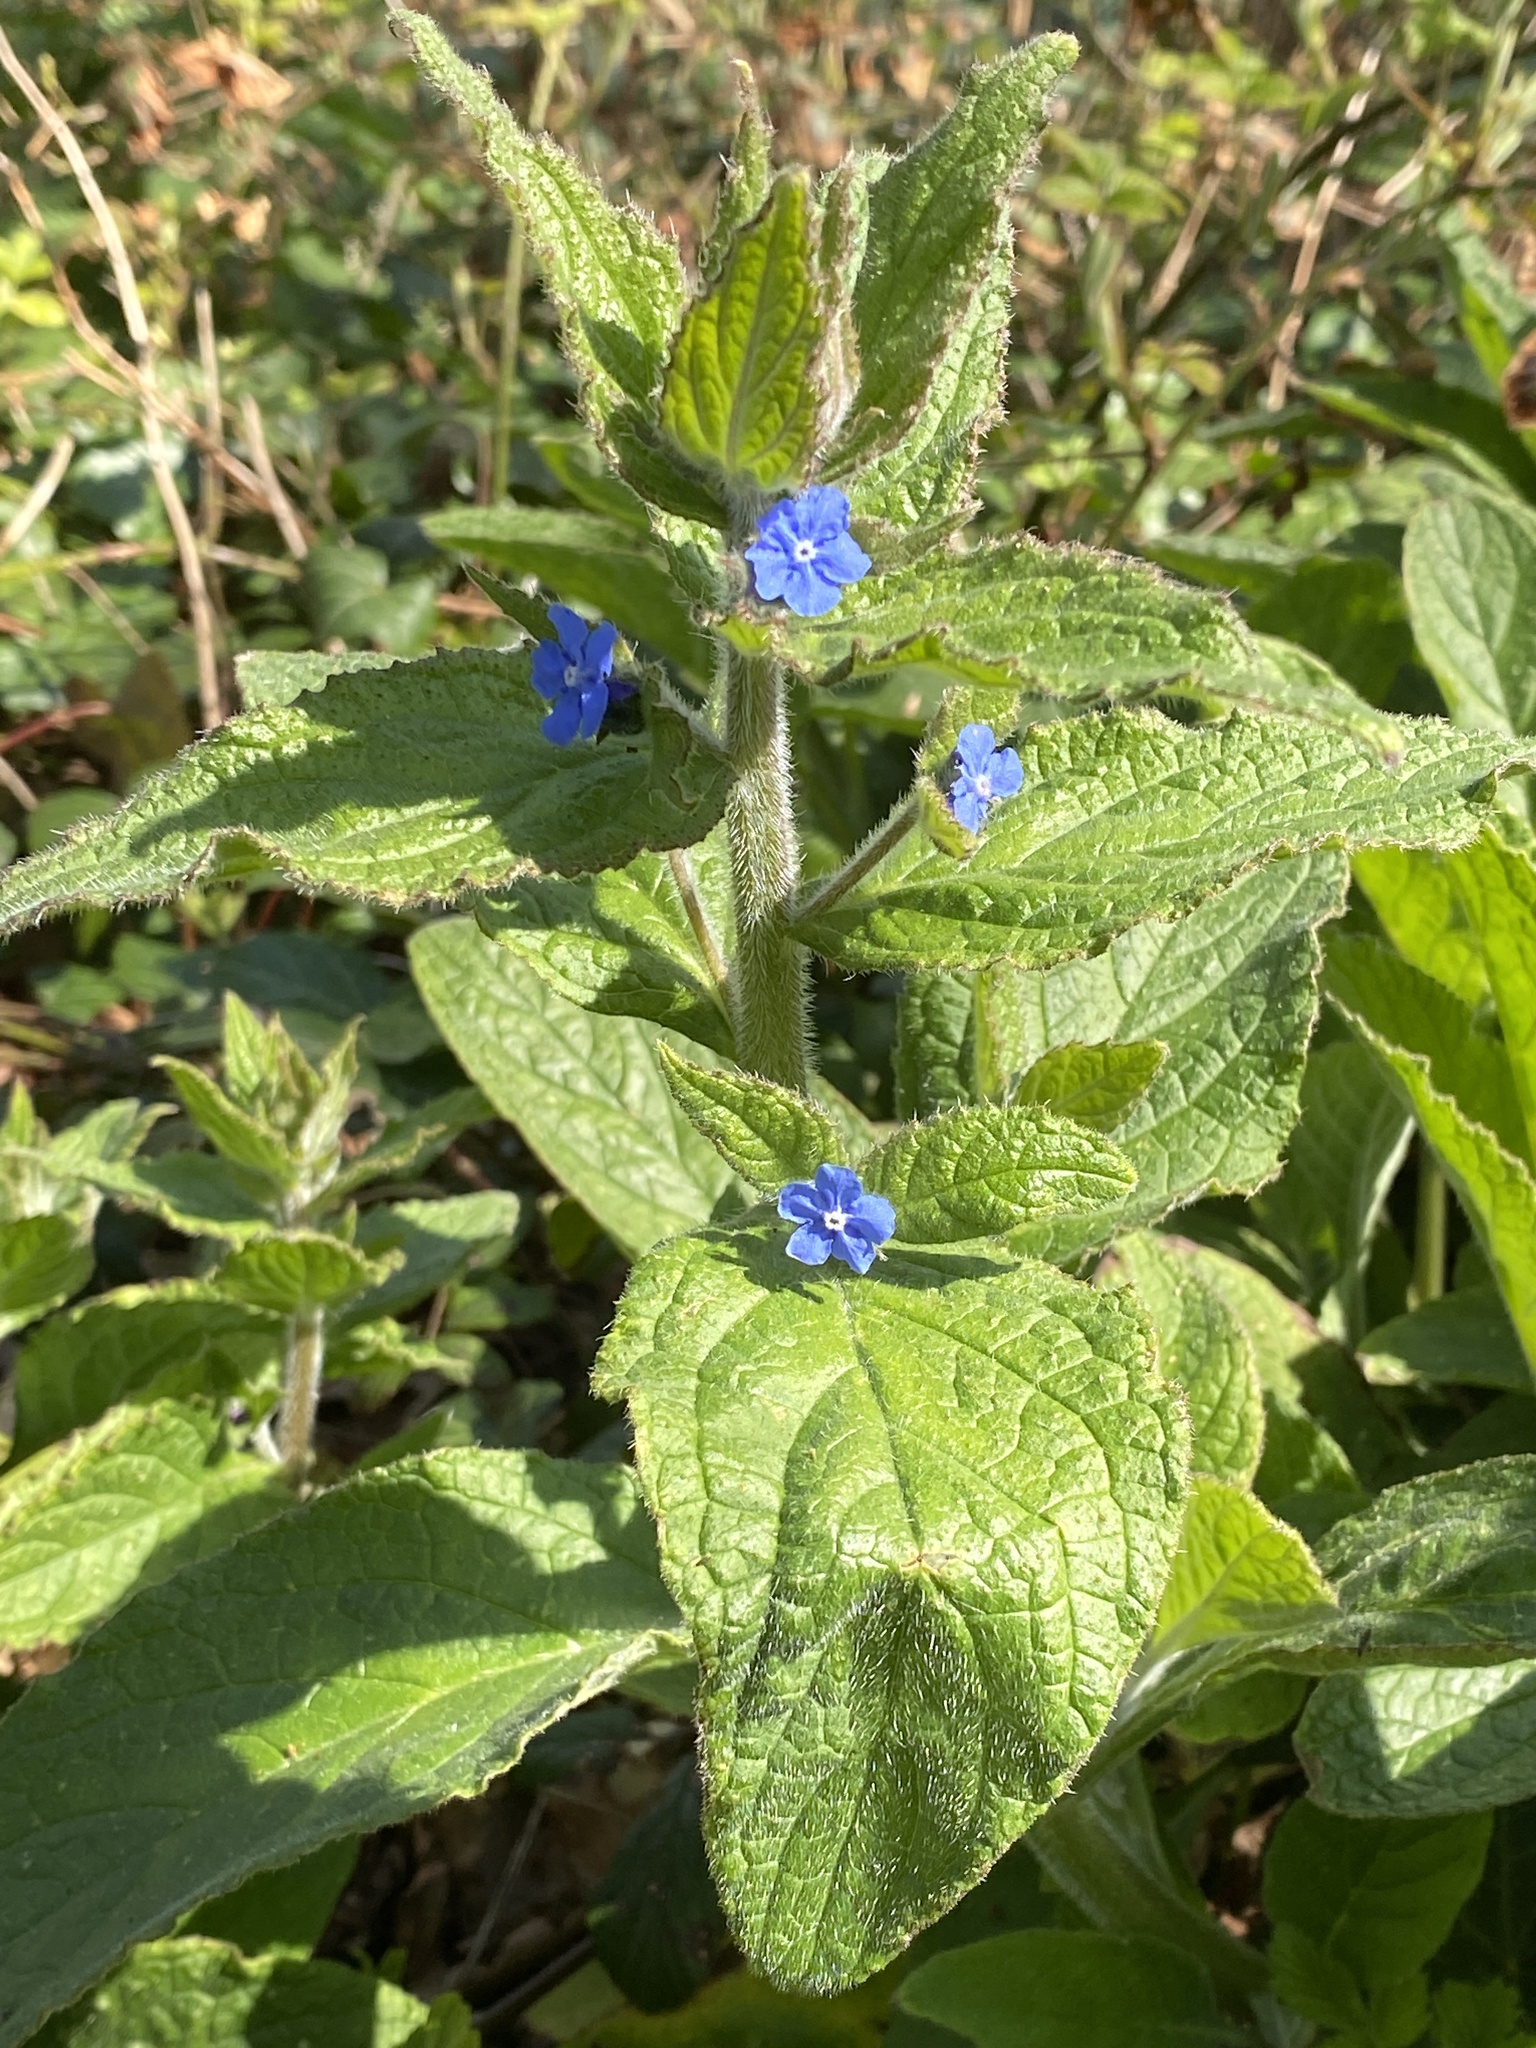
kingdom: Plantae
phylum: Tracheophyta
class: Magnoliopsida
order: Boraginales
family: Boraginaceae
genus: Pentaglottis
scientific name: Pentaglottis sempervirens
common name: Green alkanet
